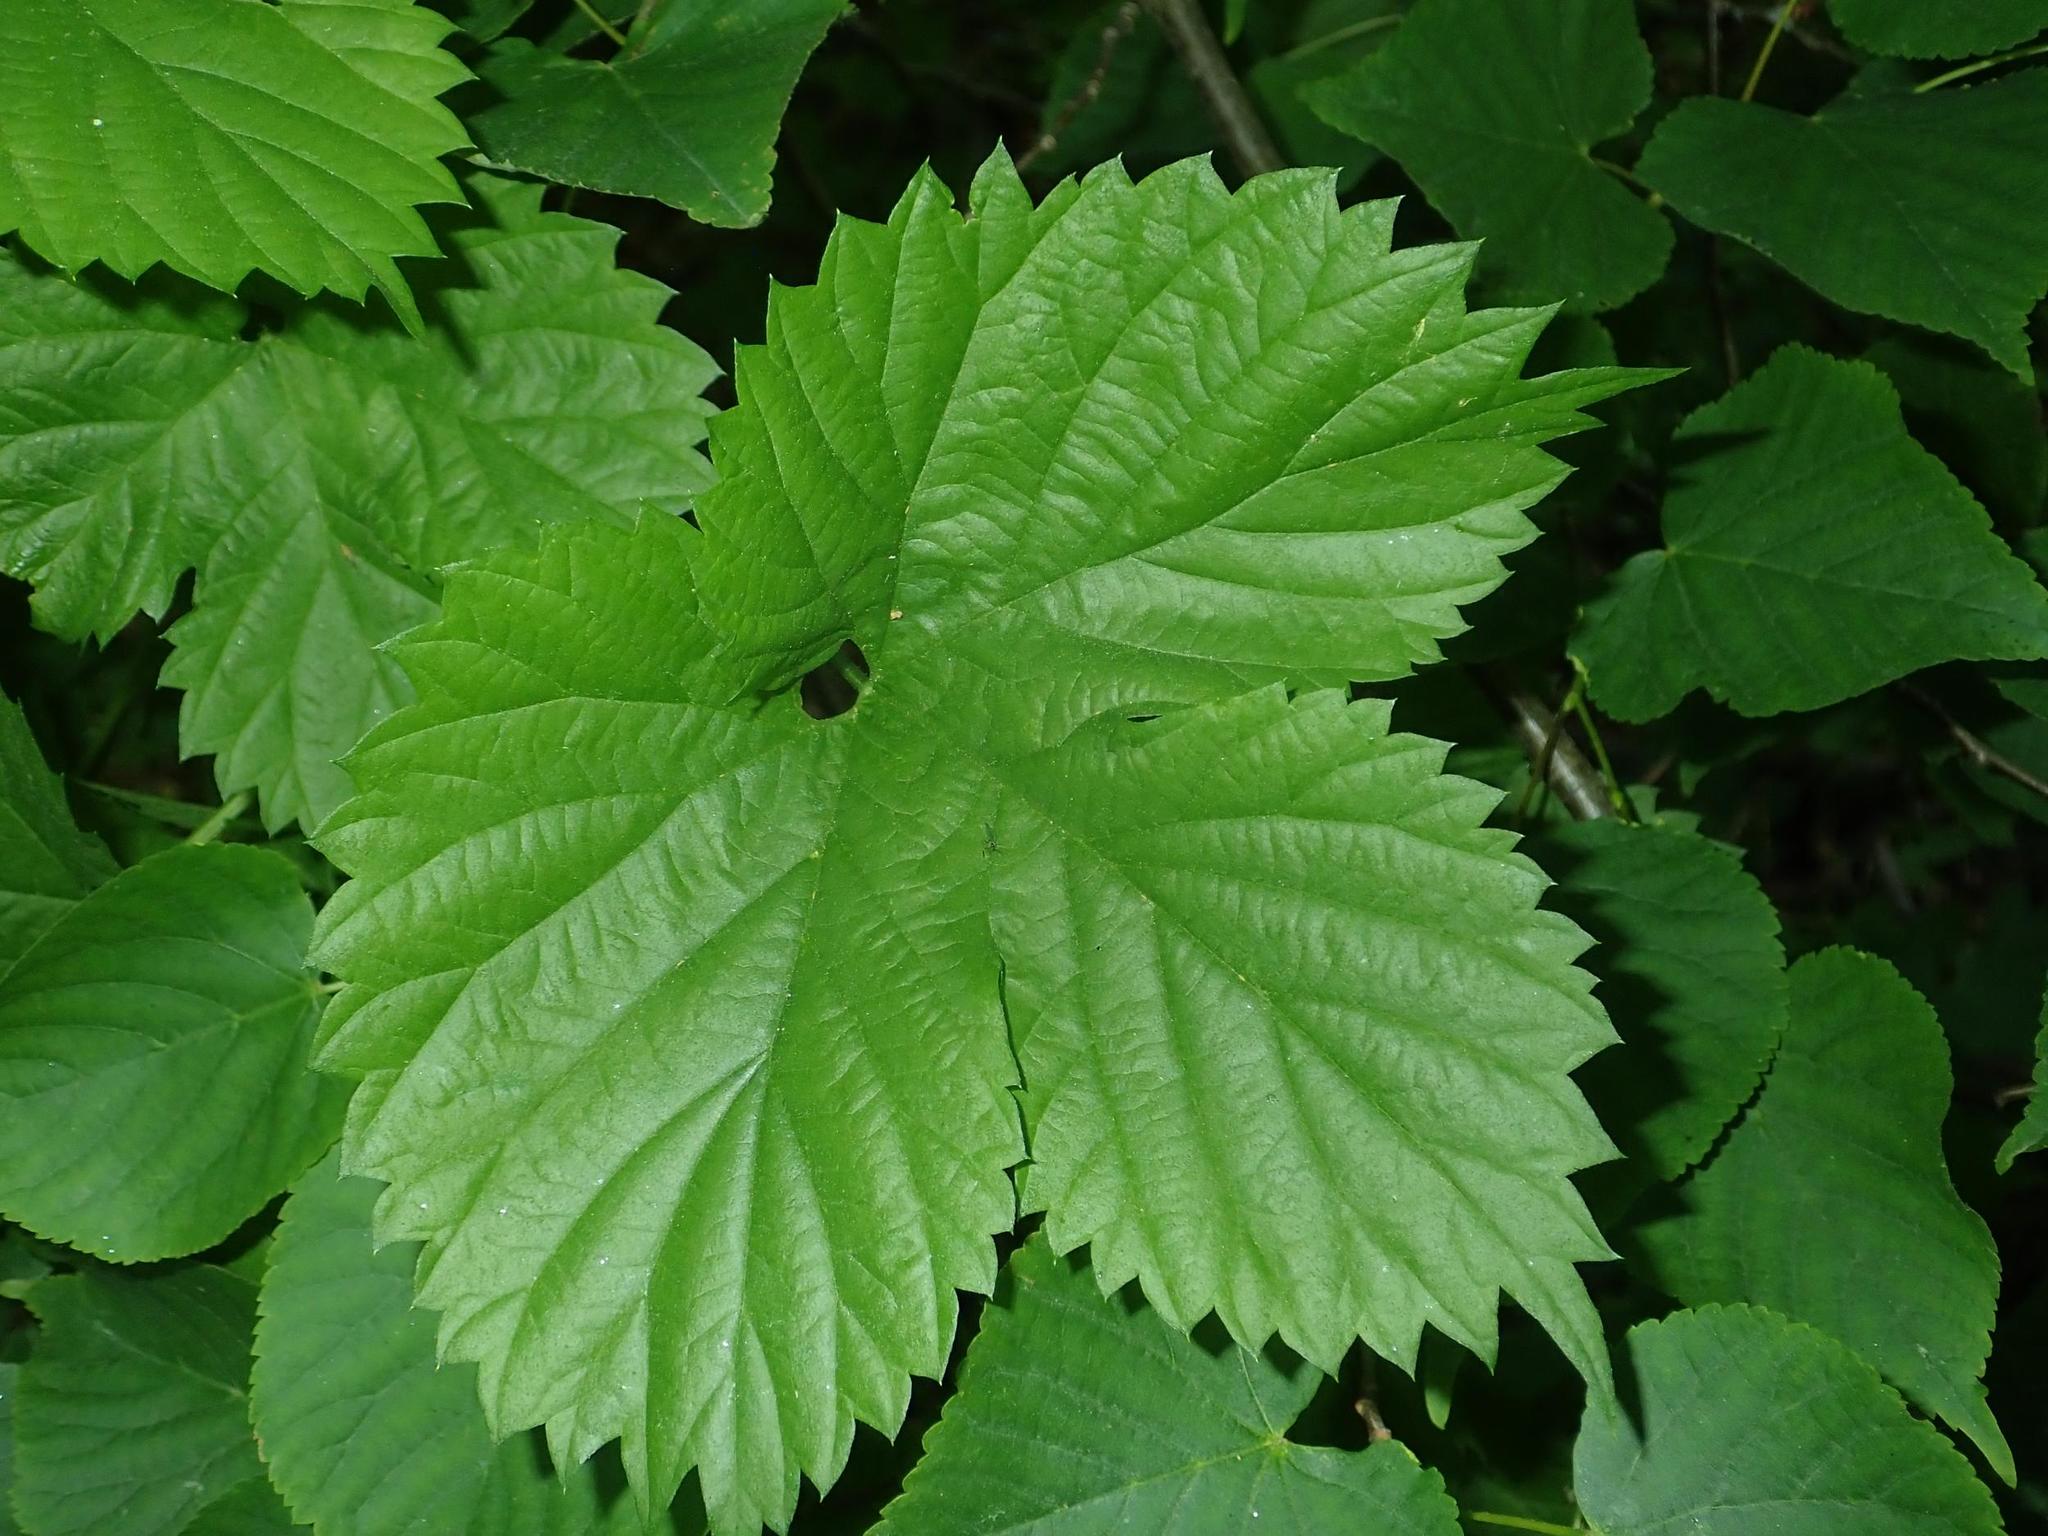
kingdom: Plantae
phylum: Tracheophyta
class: Magnoliopsida
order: Rosales
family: Cannabaceae
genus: Humulus
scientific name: Humulus lupulus
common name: Hop
